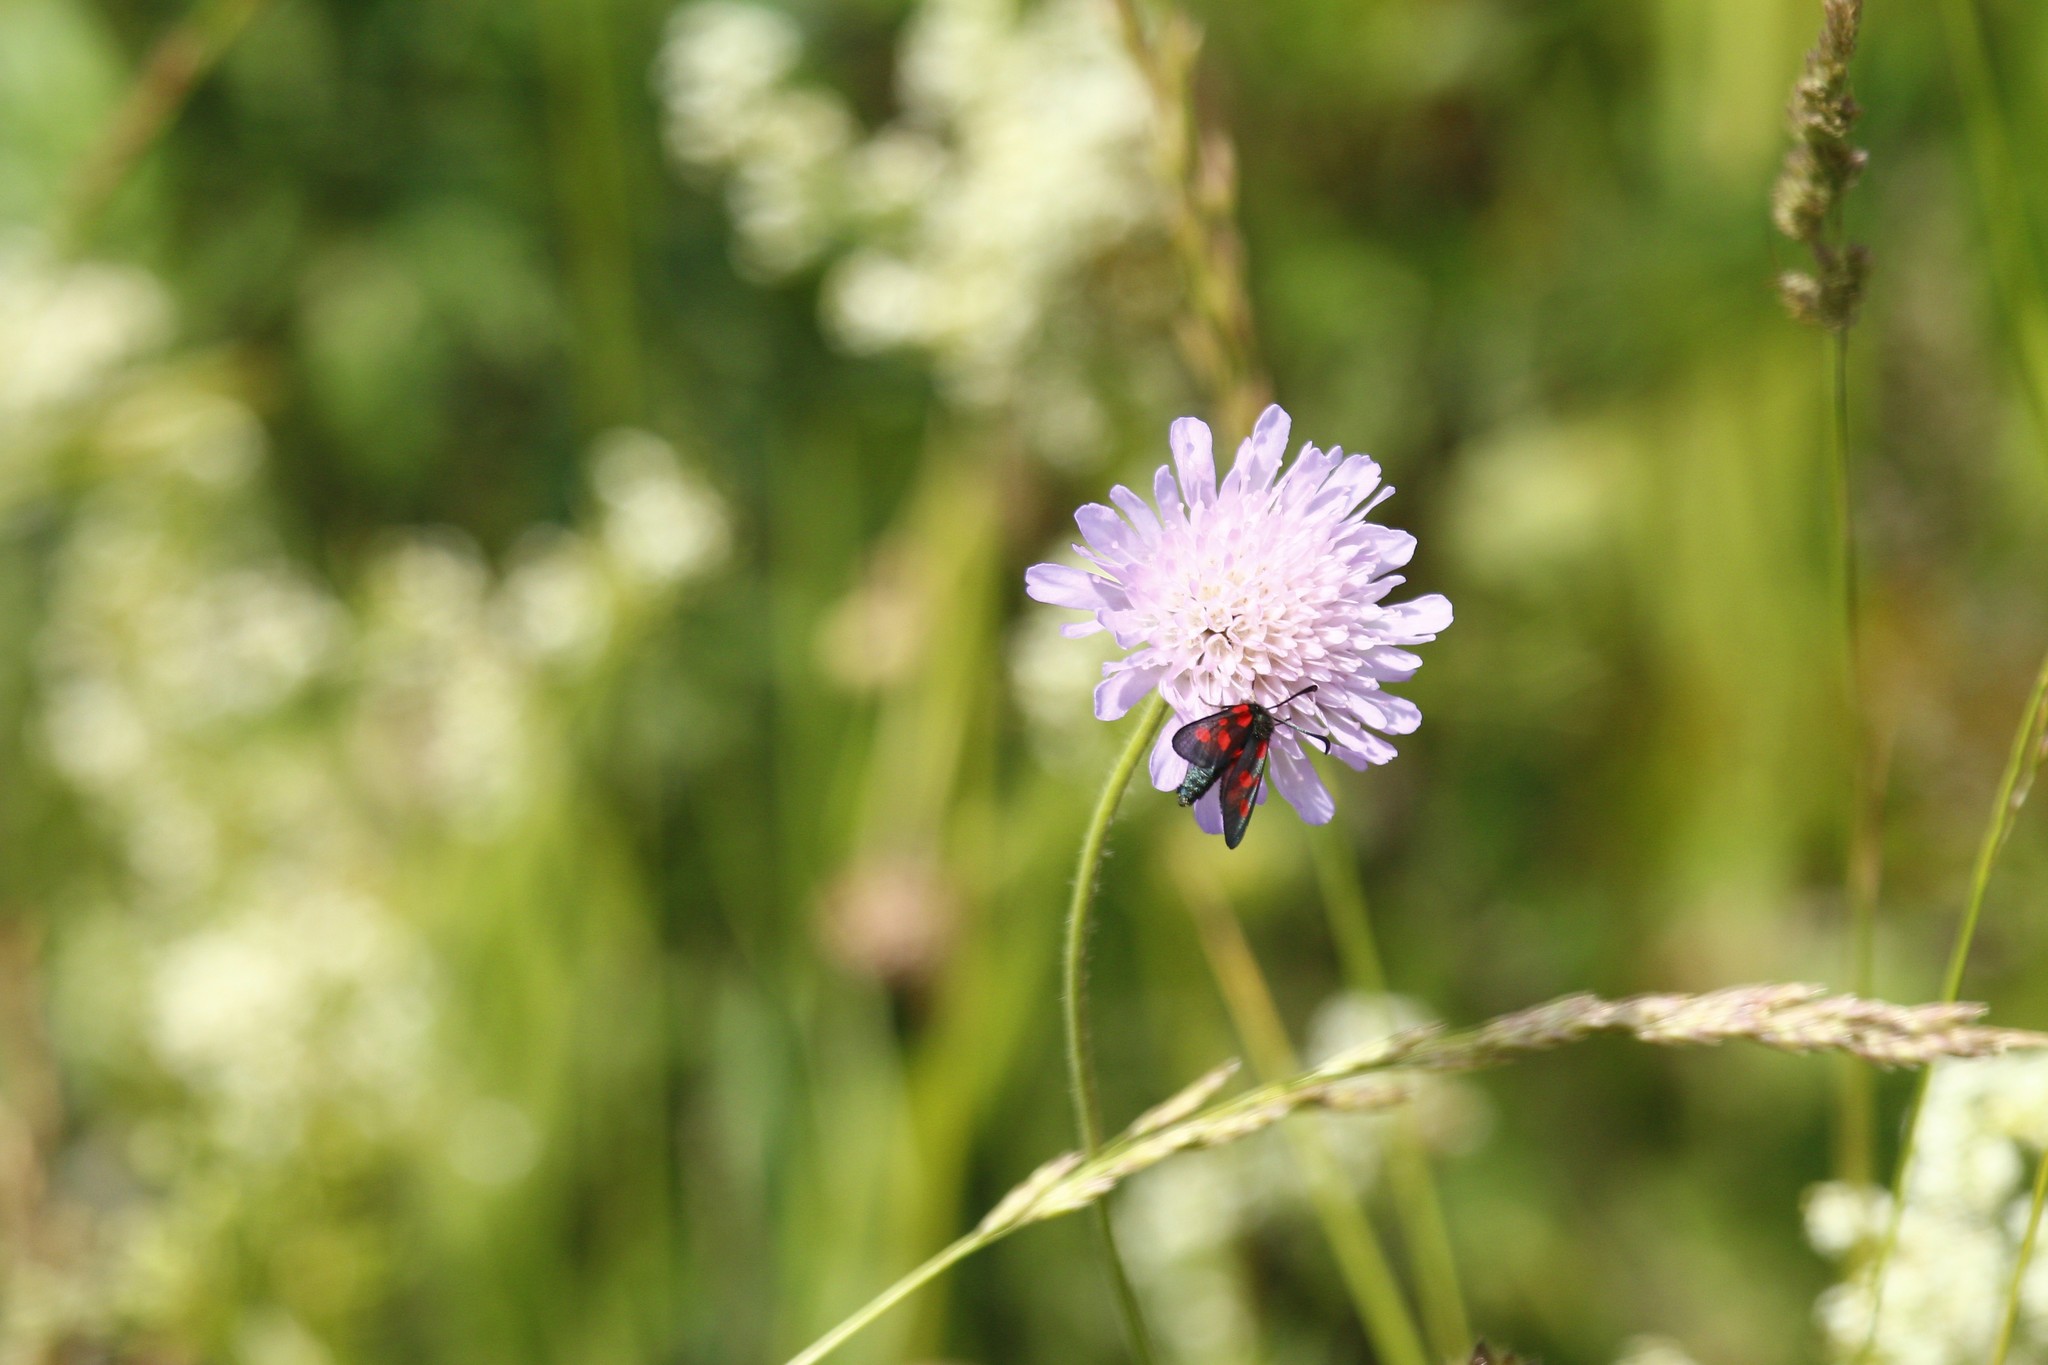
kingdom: Plantae
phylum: Tracheophyta
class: Magnoliopsida
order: Dipsacales
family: Caprifoliaceae
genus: Knautia
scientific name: Knautia arvensis
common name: Field scabiosa
